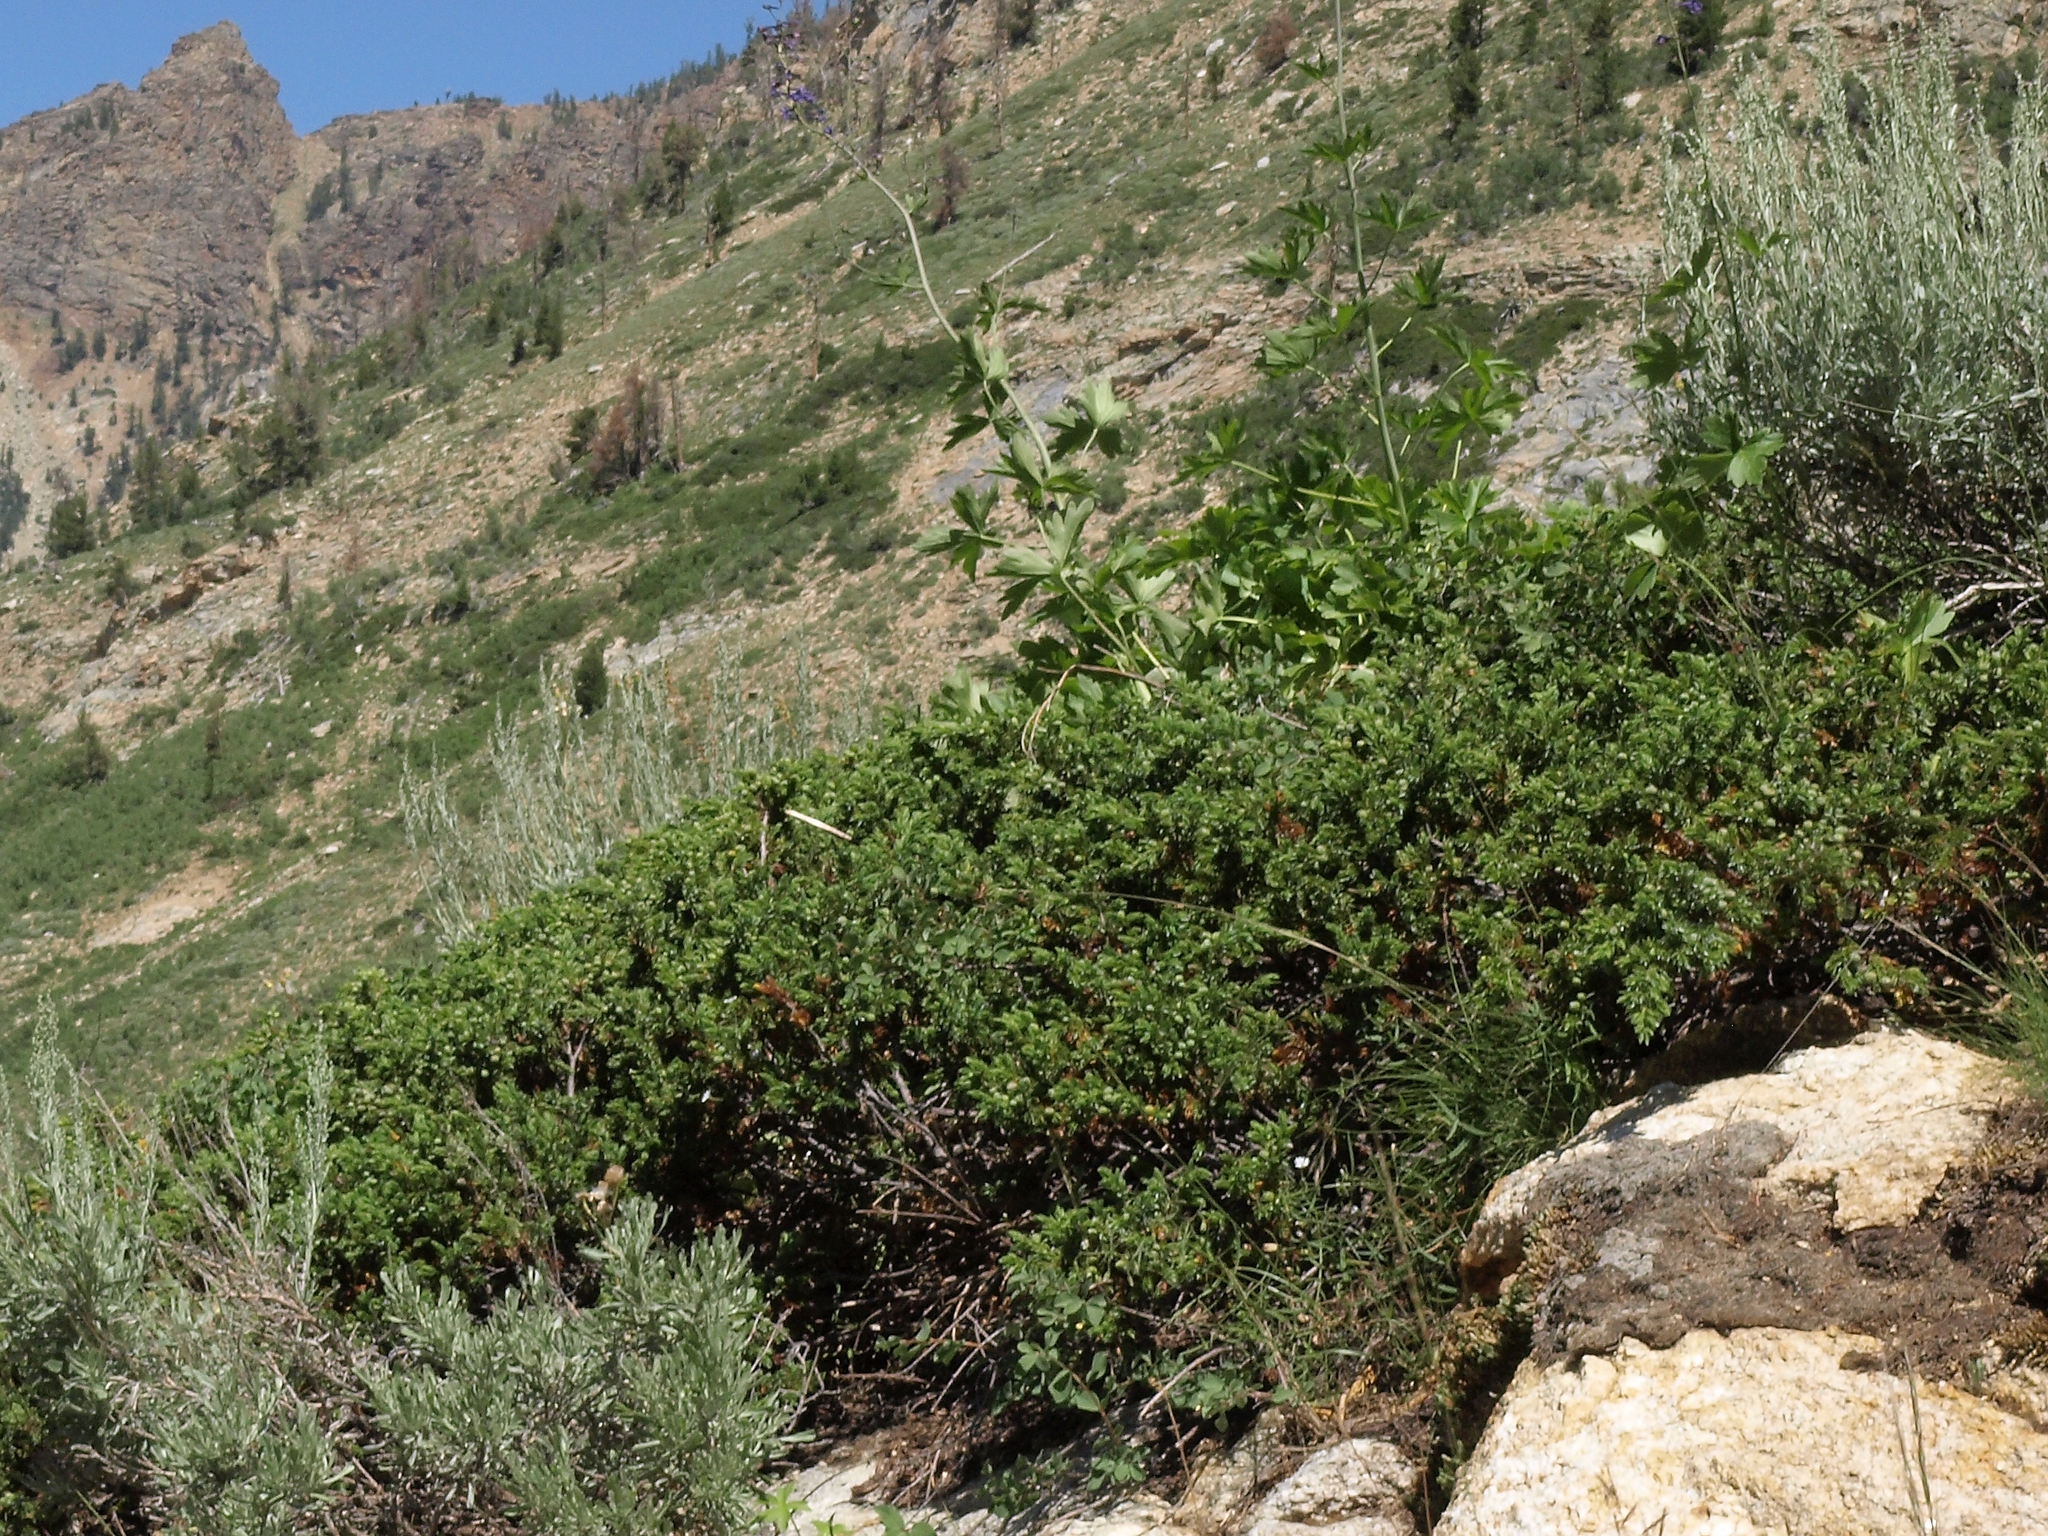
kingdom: Plantae
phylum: Tracheophyta
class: Pinopsida
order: Pinales
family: Cupressaceae
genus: Juniperus
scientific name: Juniperus communis
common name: Common juniper
